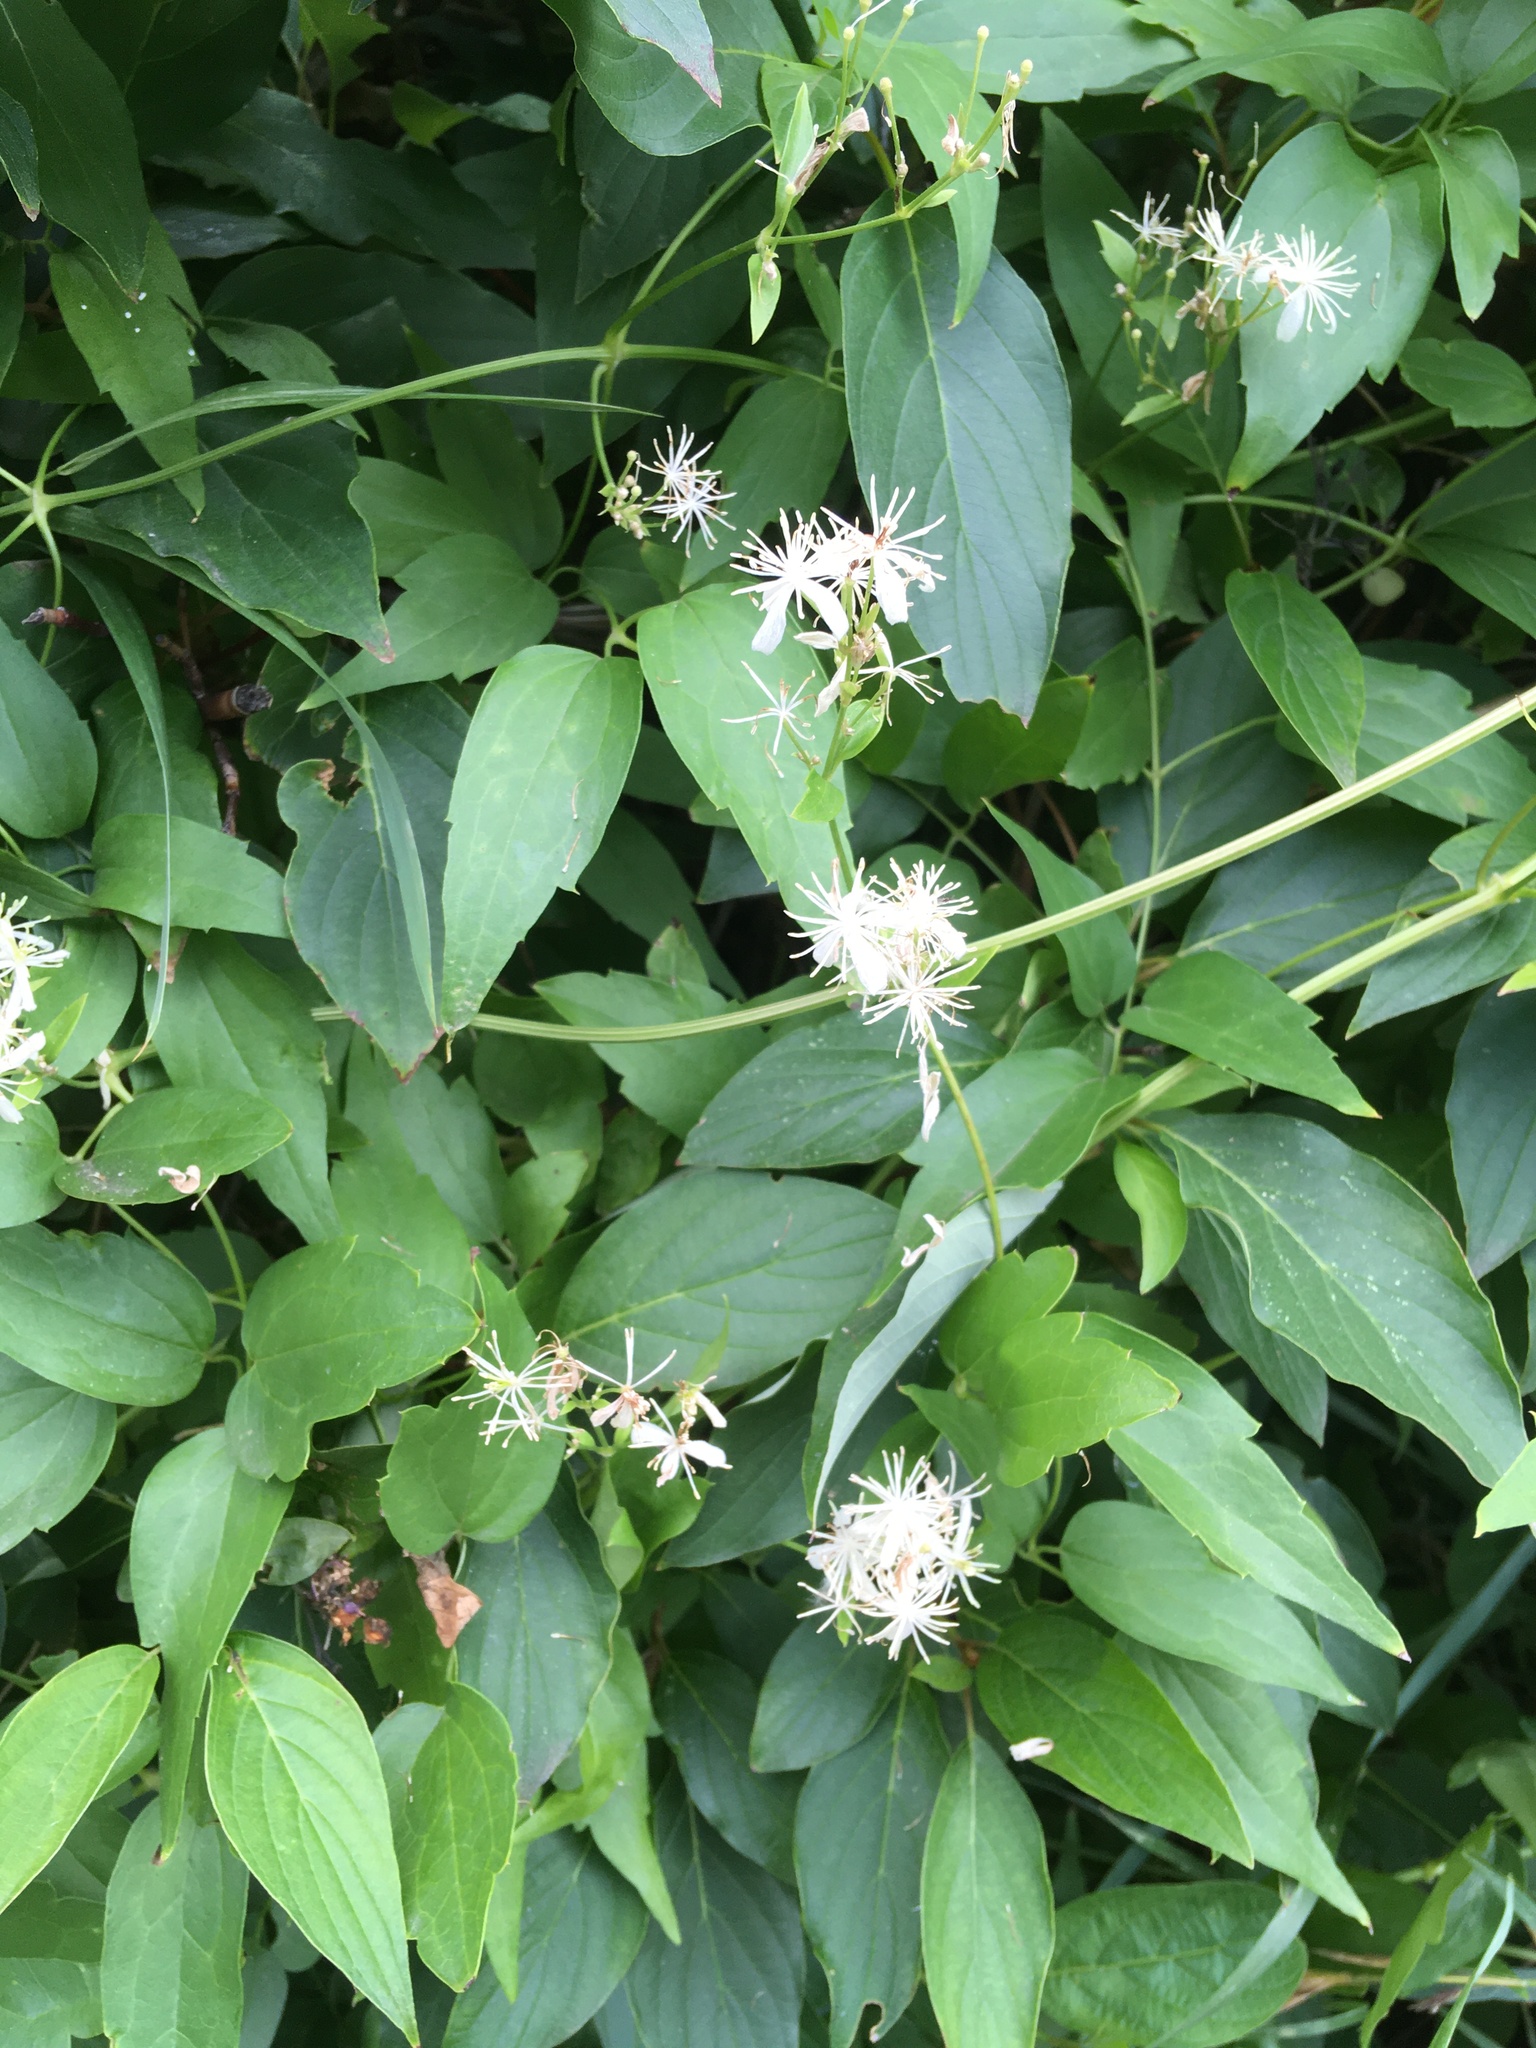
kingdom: Plantae
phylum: Tracheophyta
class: Magnoliopsida
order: Ranunculales
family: Ranunculaceae
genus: Clematis
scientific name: Clematis ligusticifolia
